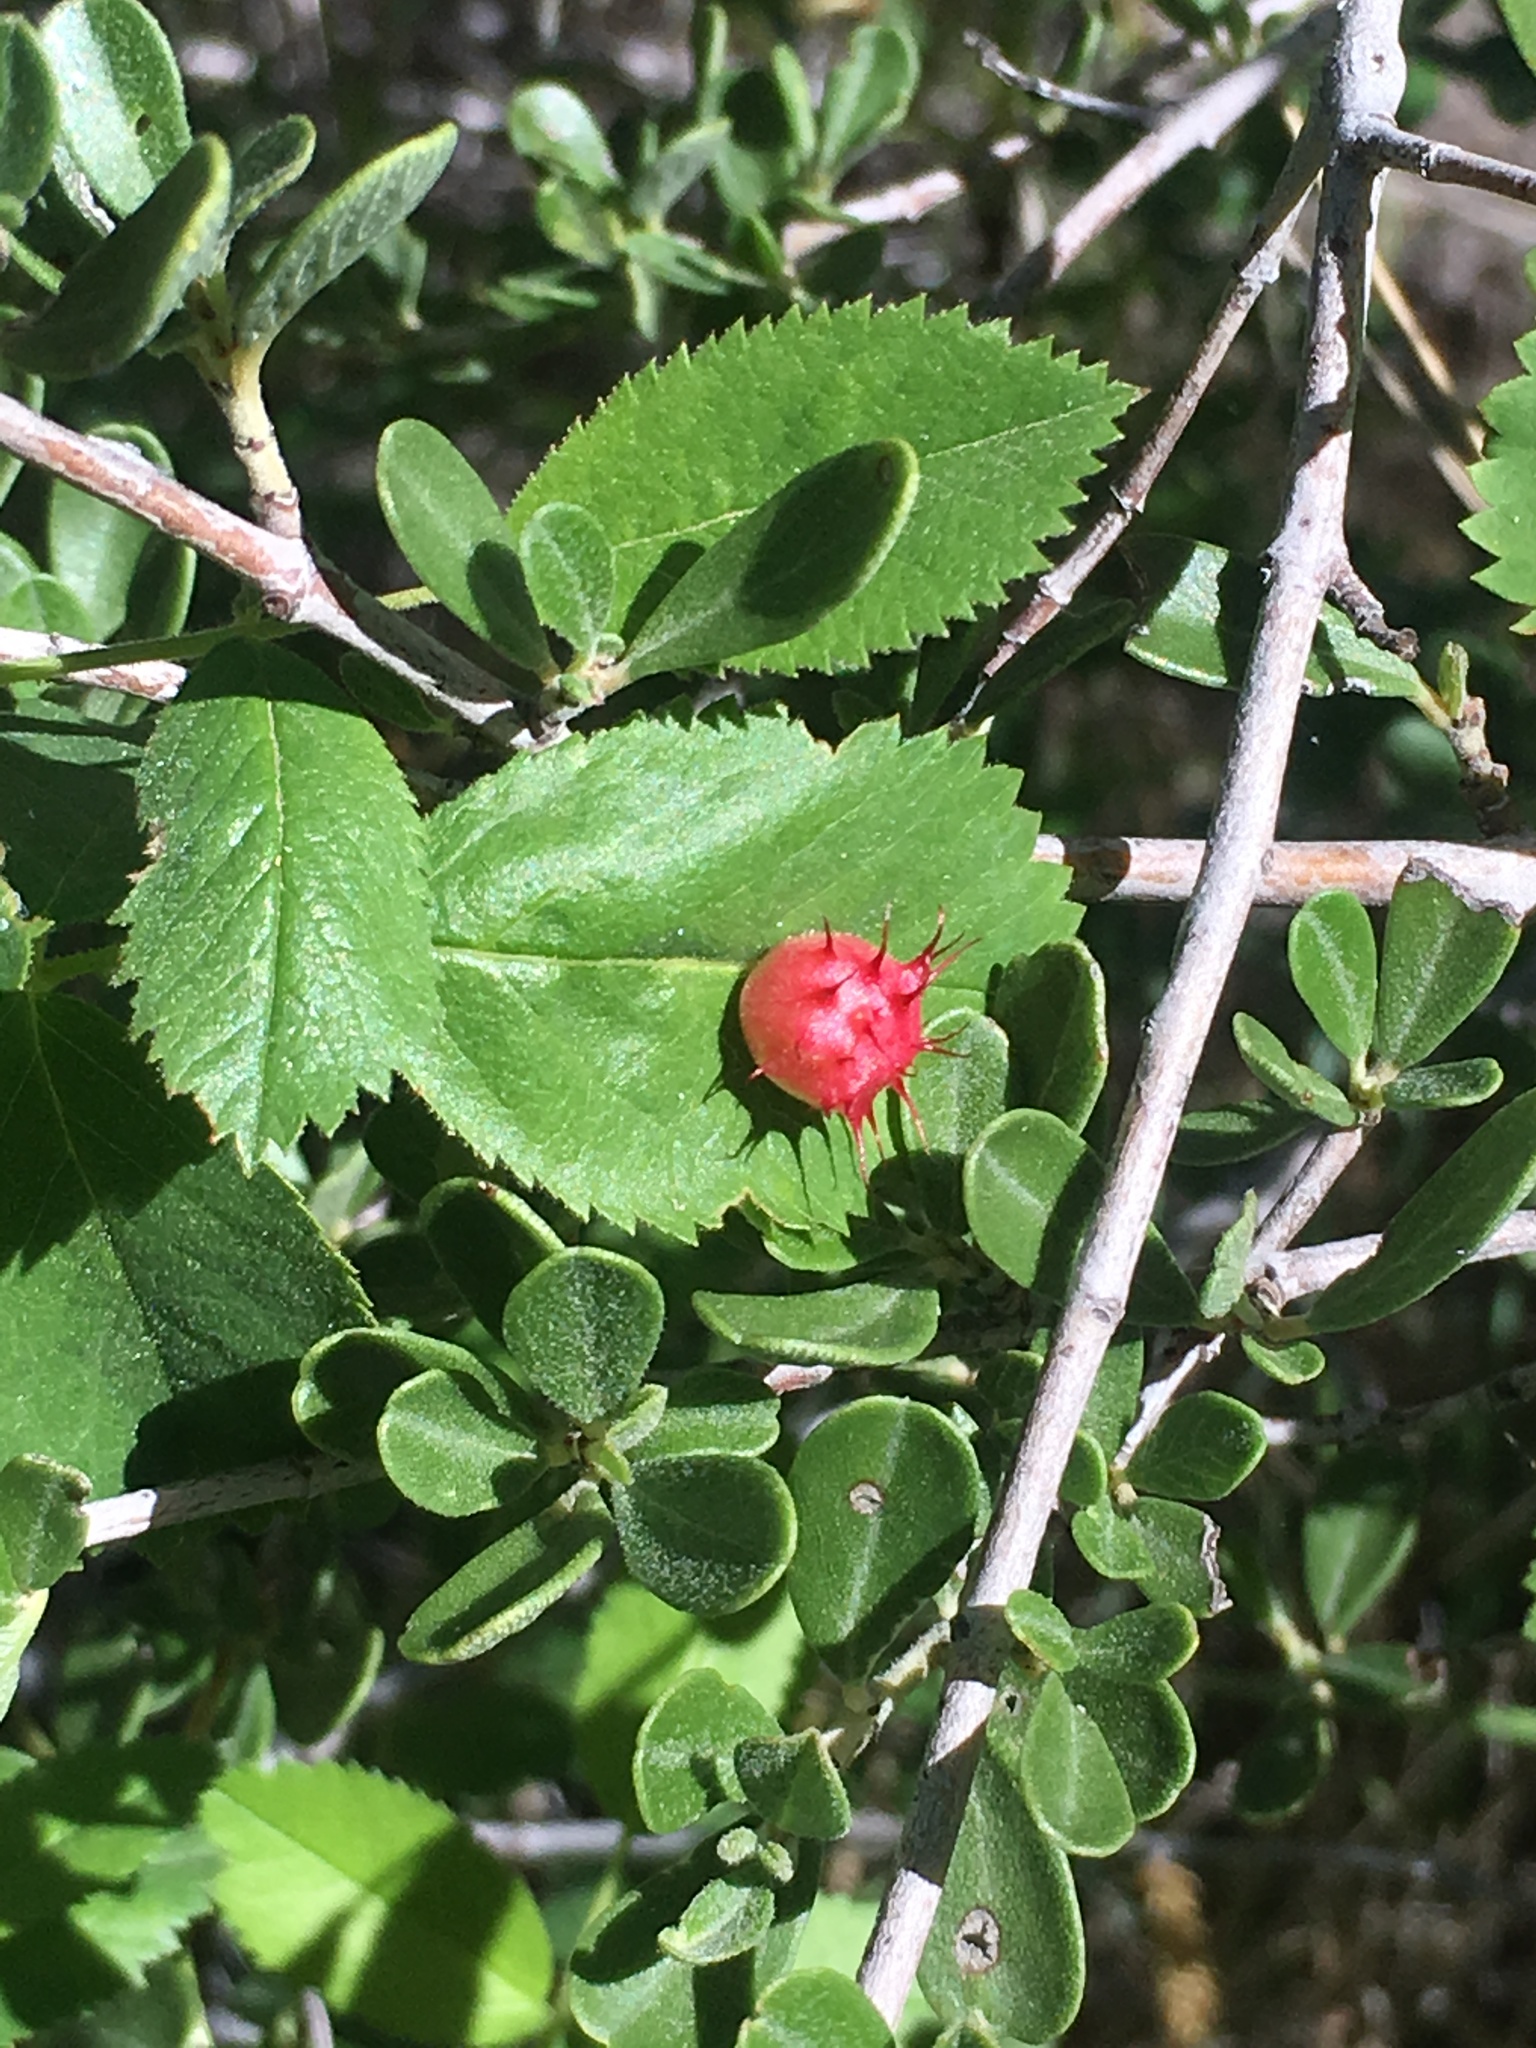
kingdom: Animalia
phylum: Arthropoda
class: Insecta
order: Hymenoptera
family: Cynipidae
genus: Diplolepis
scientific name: Diplolepis polita
